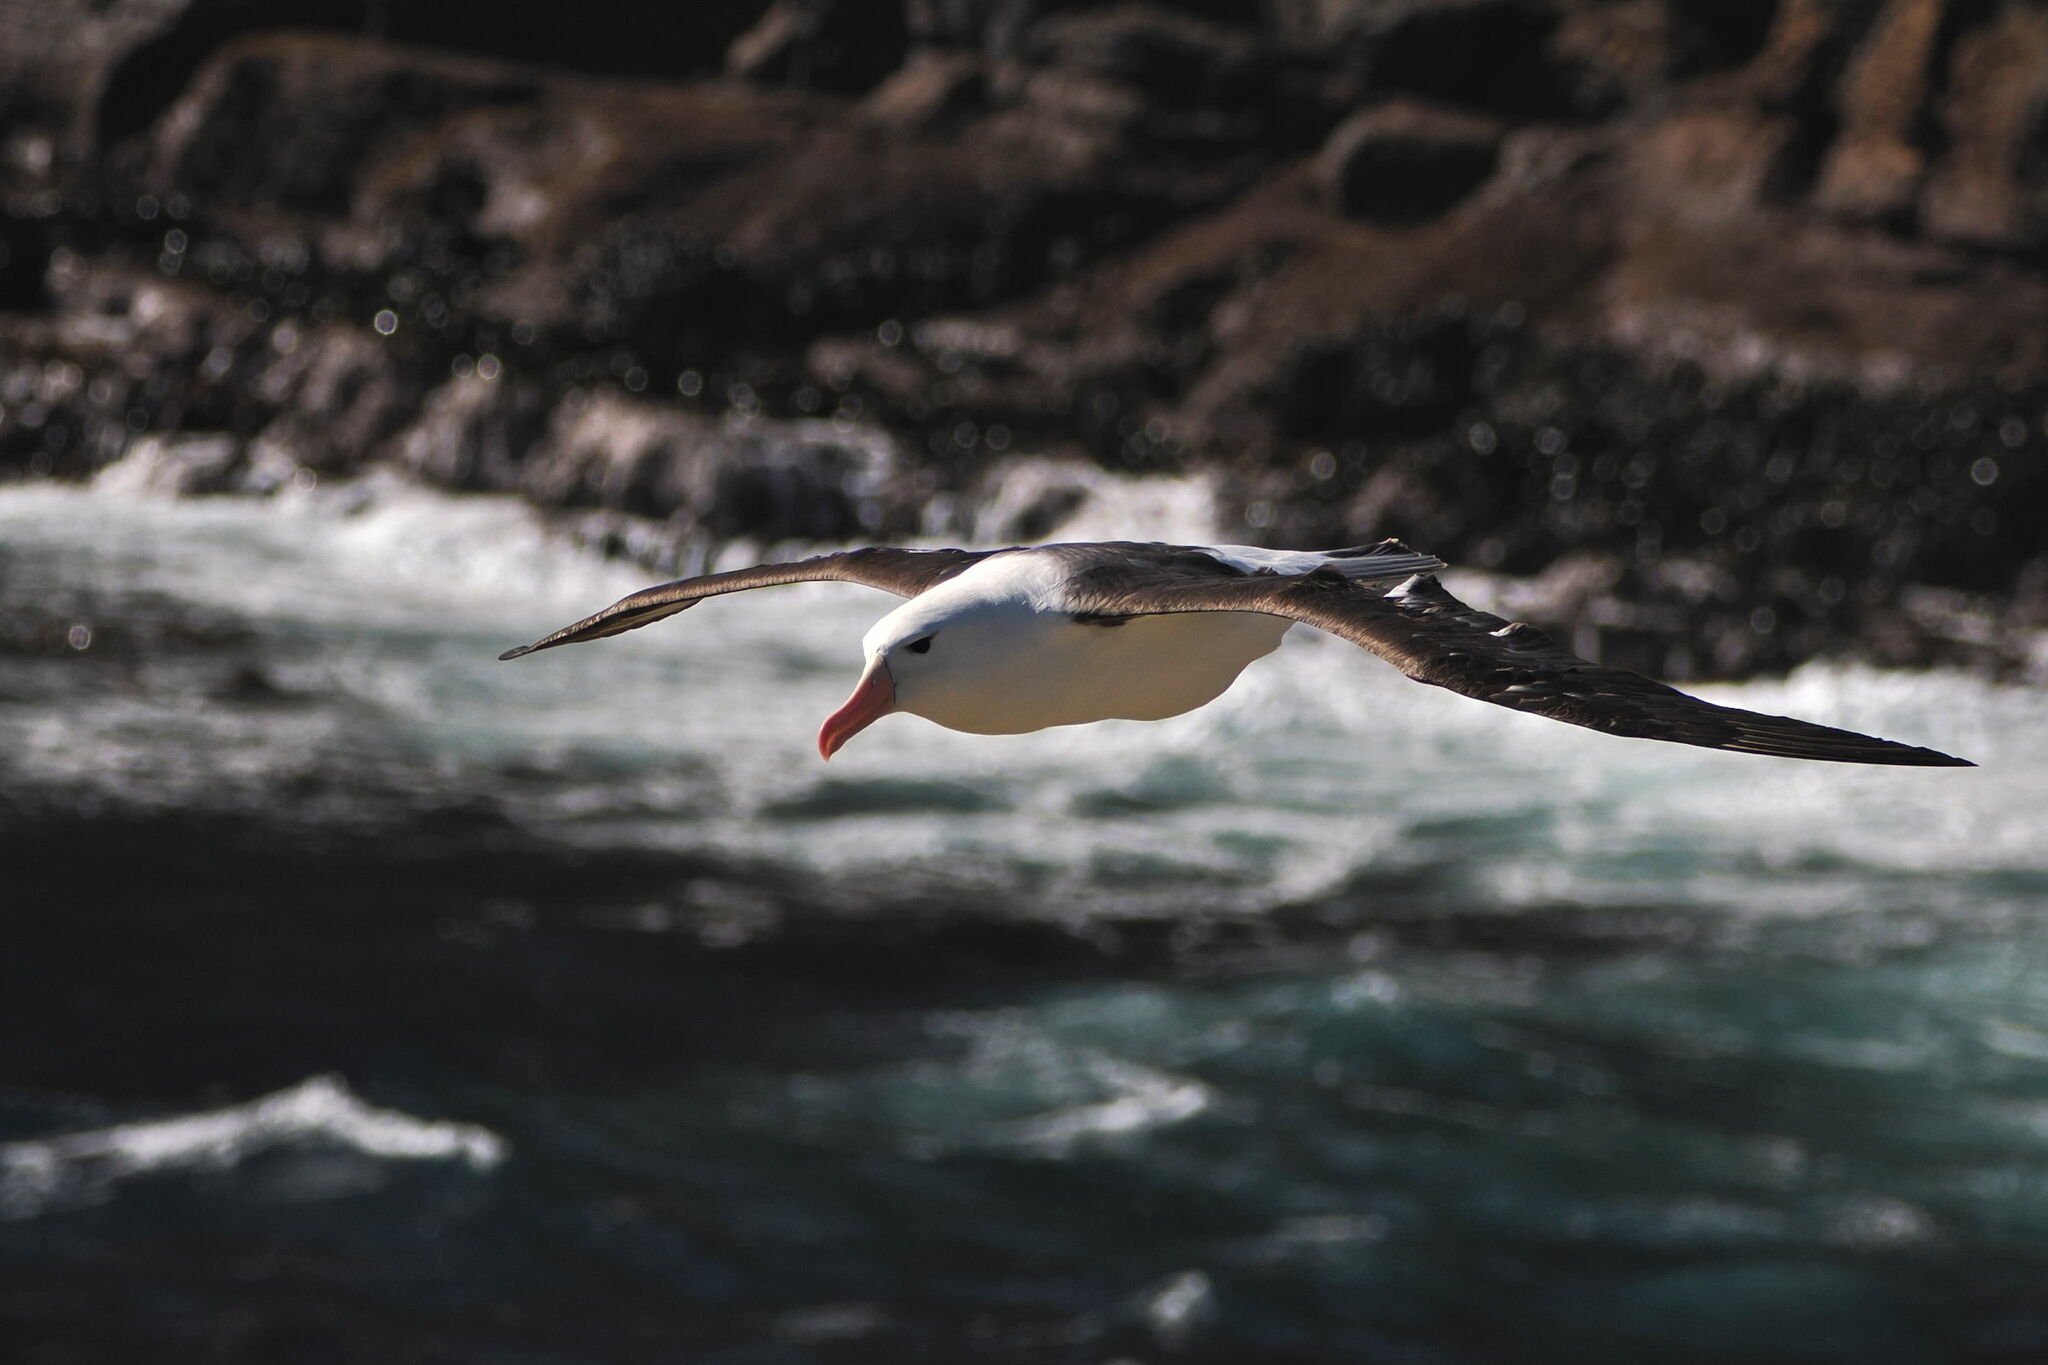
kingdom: Animalia
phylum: Chordata
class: Aves
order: Procellariiformes
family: Diomedeidae
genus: Thalassarche
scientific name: Thalassarche melanophris
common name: Black-browed albatross
